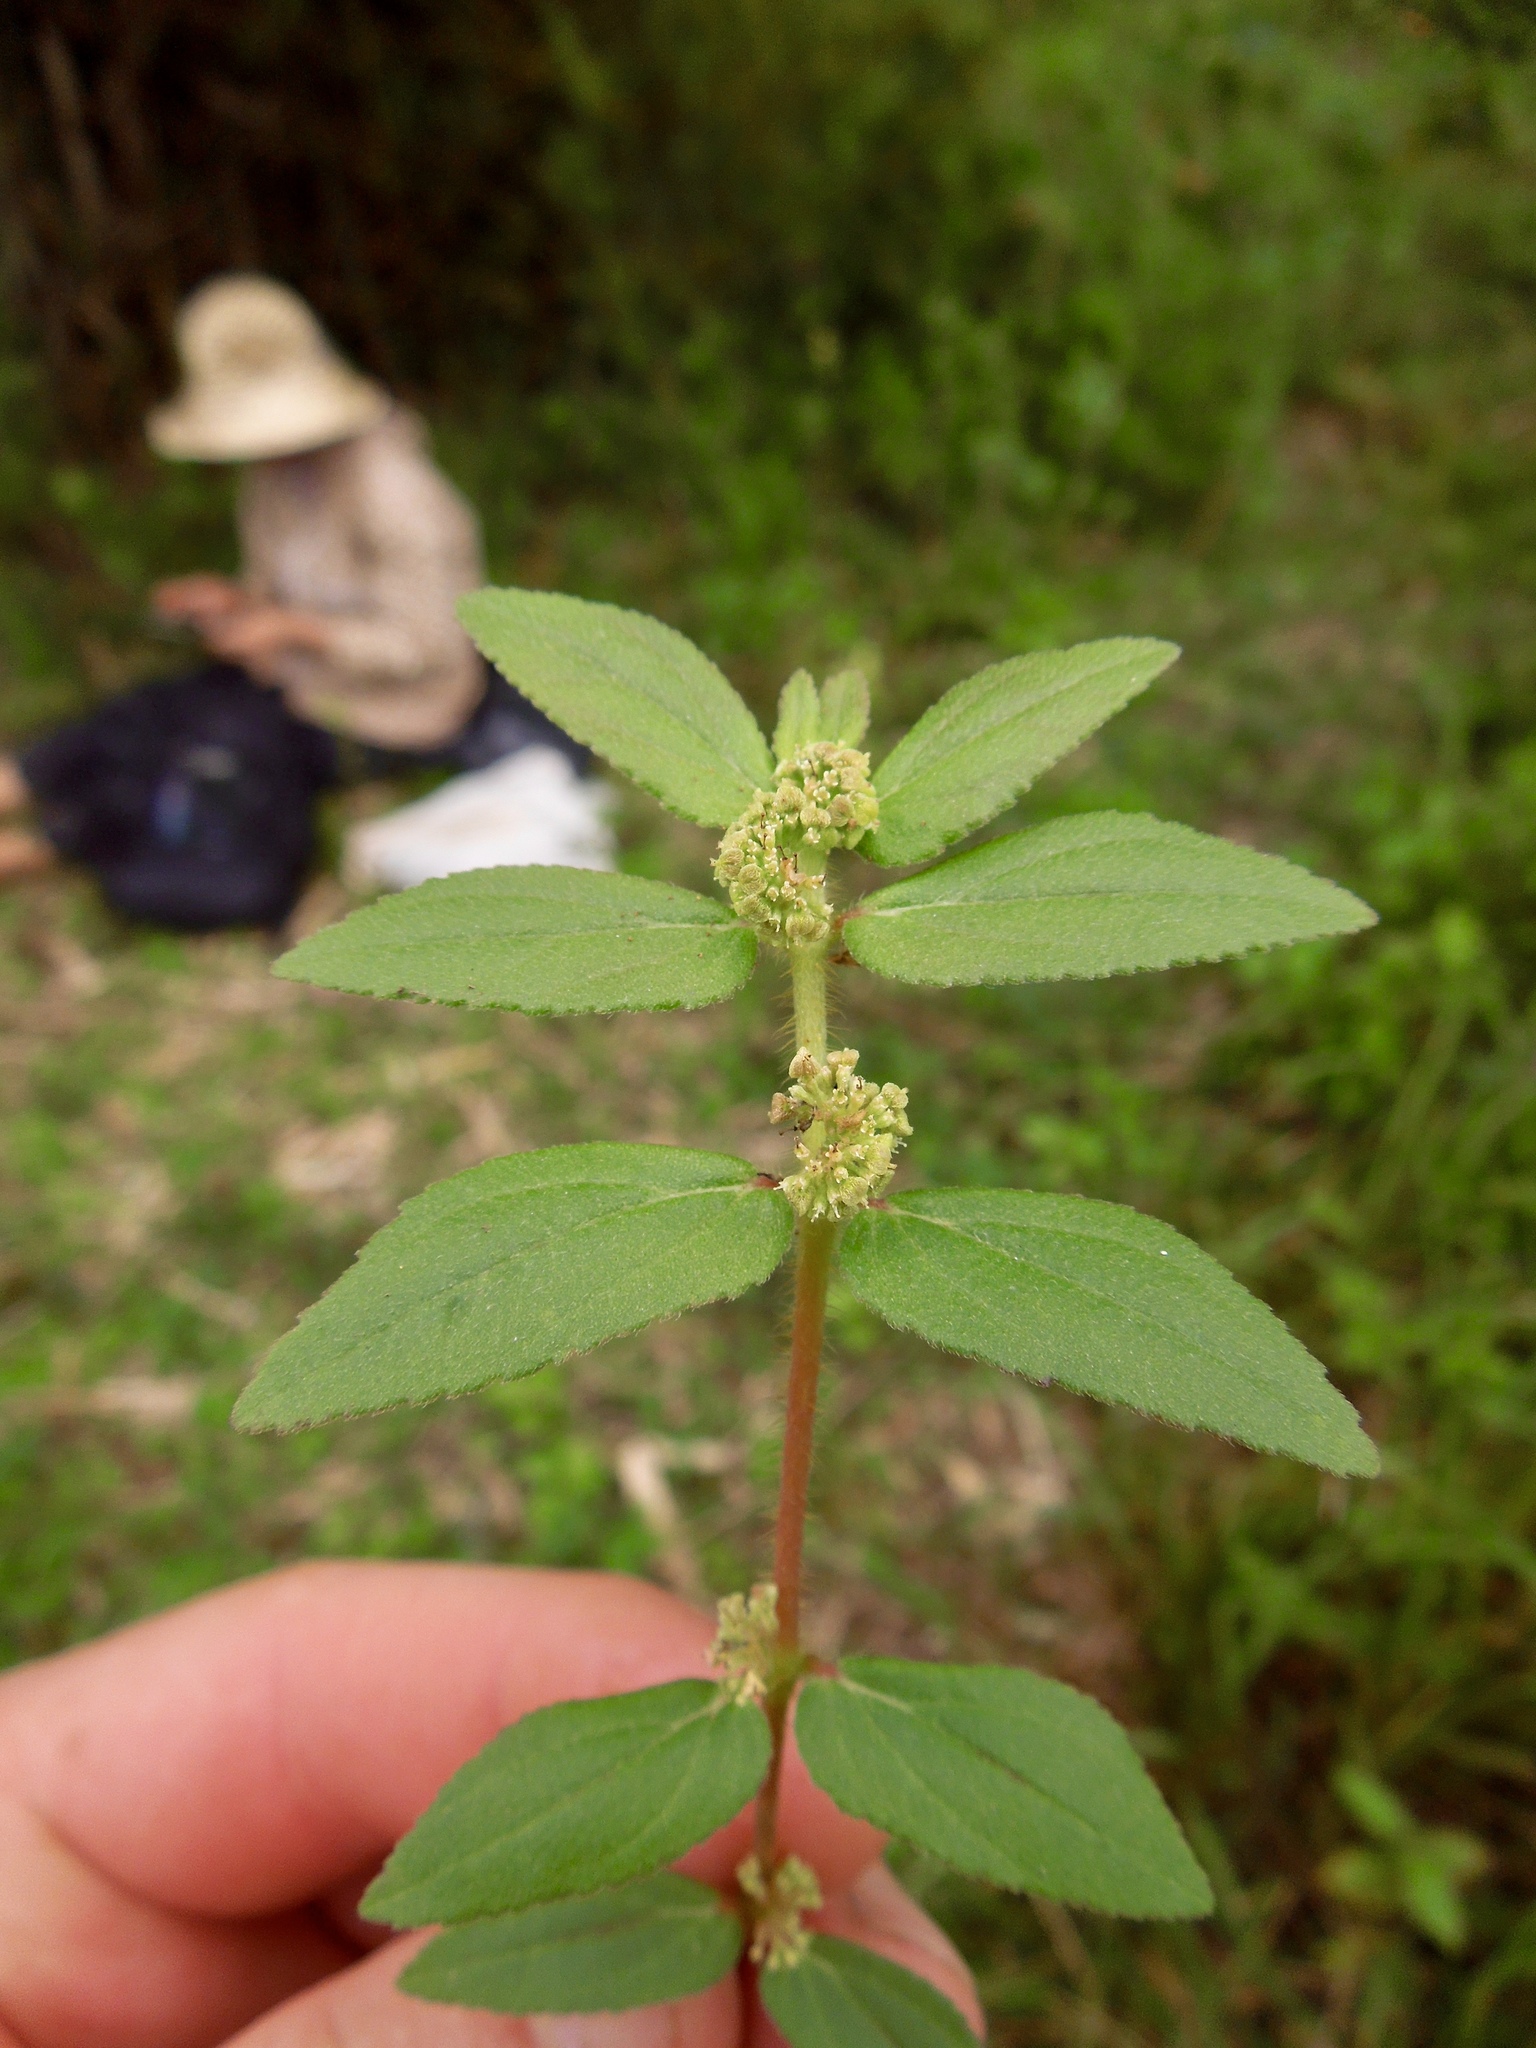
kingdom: Plantae
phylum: Tracheophyta
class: Magnoliopsida
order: Malpighiales
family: Euphorbiaceae
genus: Euphorbia
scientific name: Euphorbia hirta
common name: Pillpod sandmat
